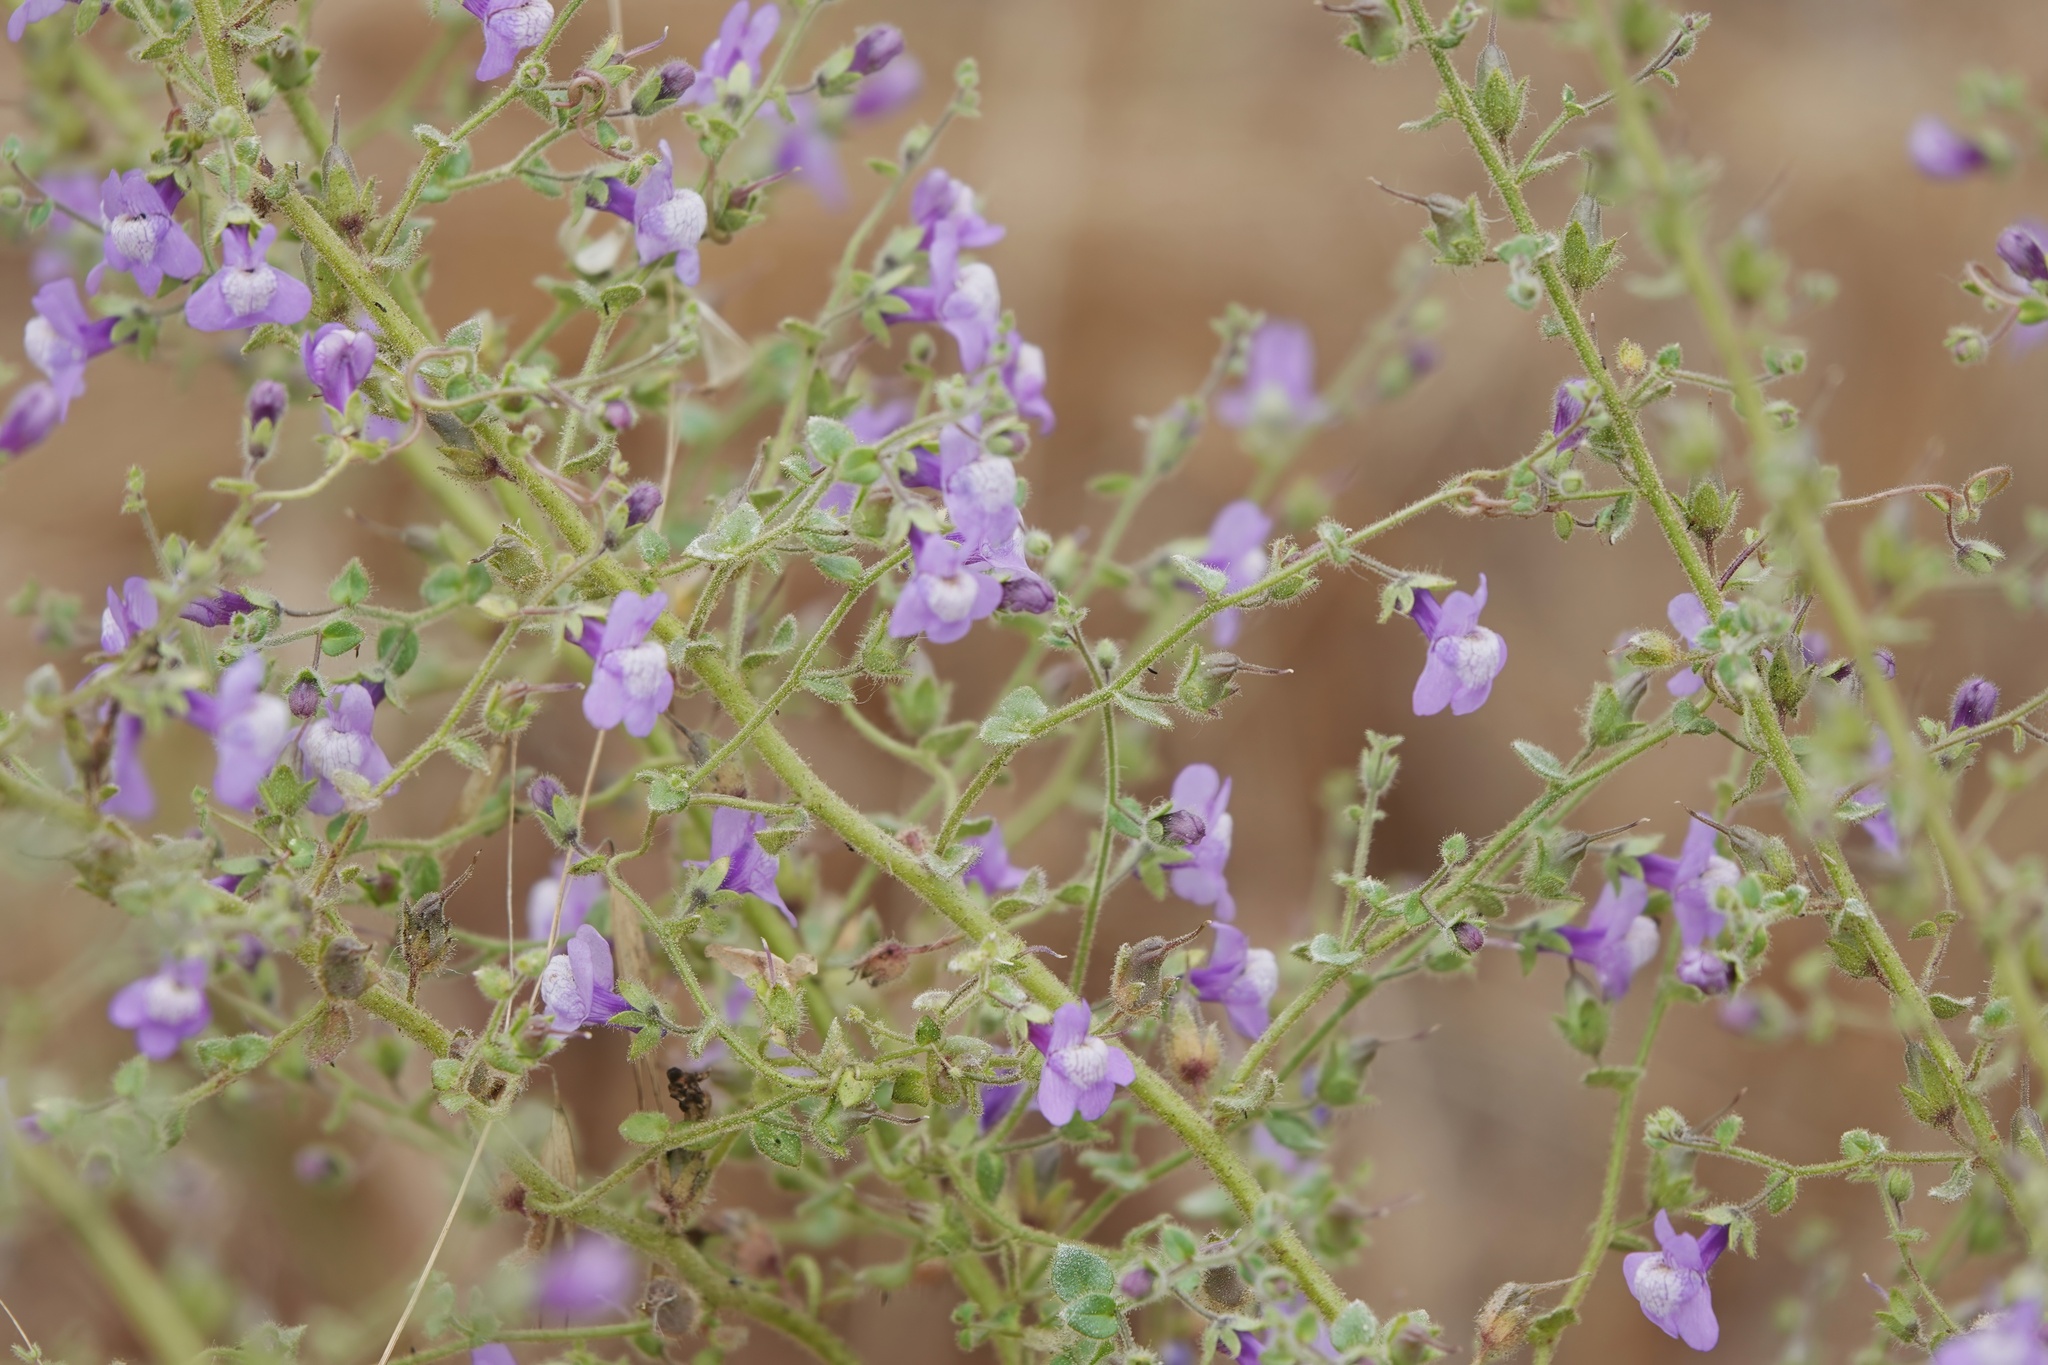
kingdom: Plantae
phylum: Tracheophyta
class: Magnoliopsida
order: Lamiales
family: Plantaginaceae
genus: Sairocarpus
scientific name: Sairocarpus nuttallianus
